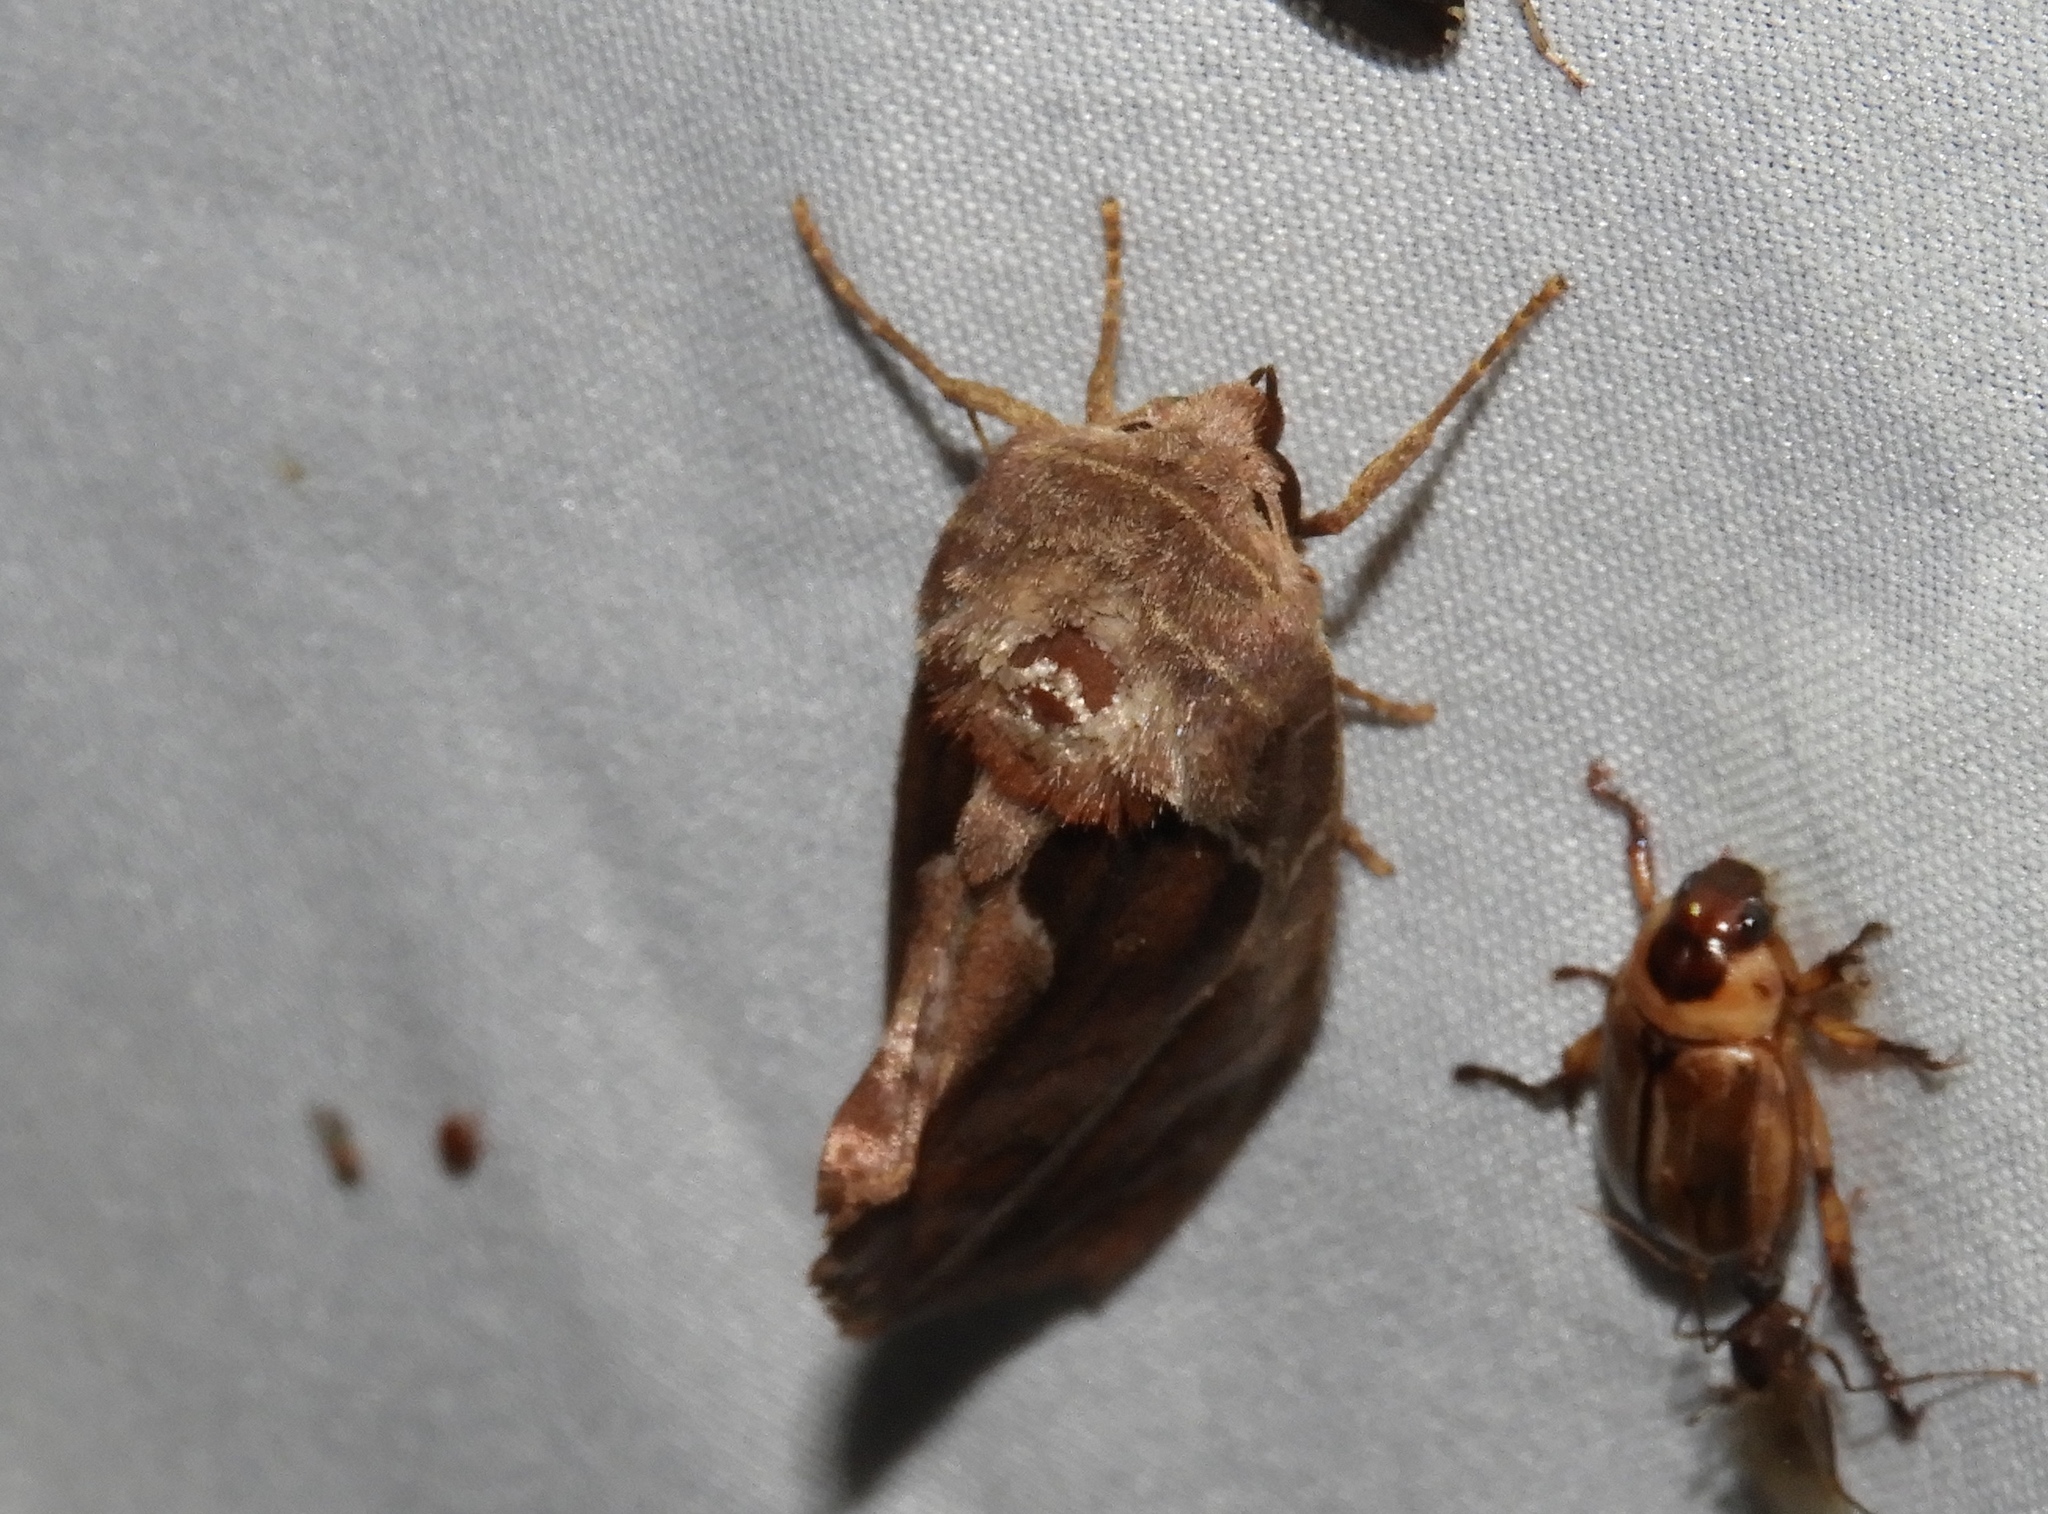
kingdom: Animalia
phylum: Arthropoda
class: Insecta
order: Lepidoptera
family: Erebidae
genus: Gonodonta
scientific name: Gonodonta
